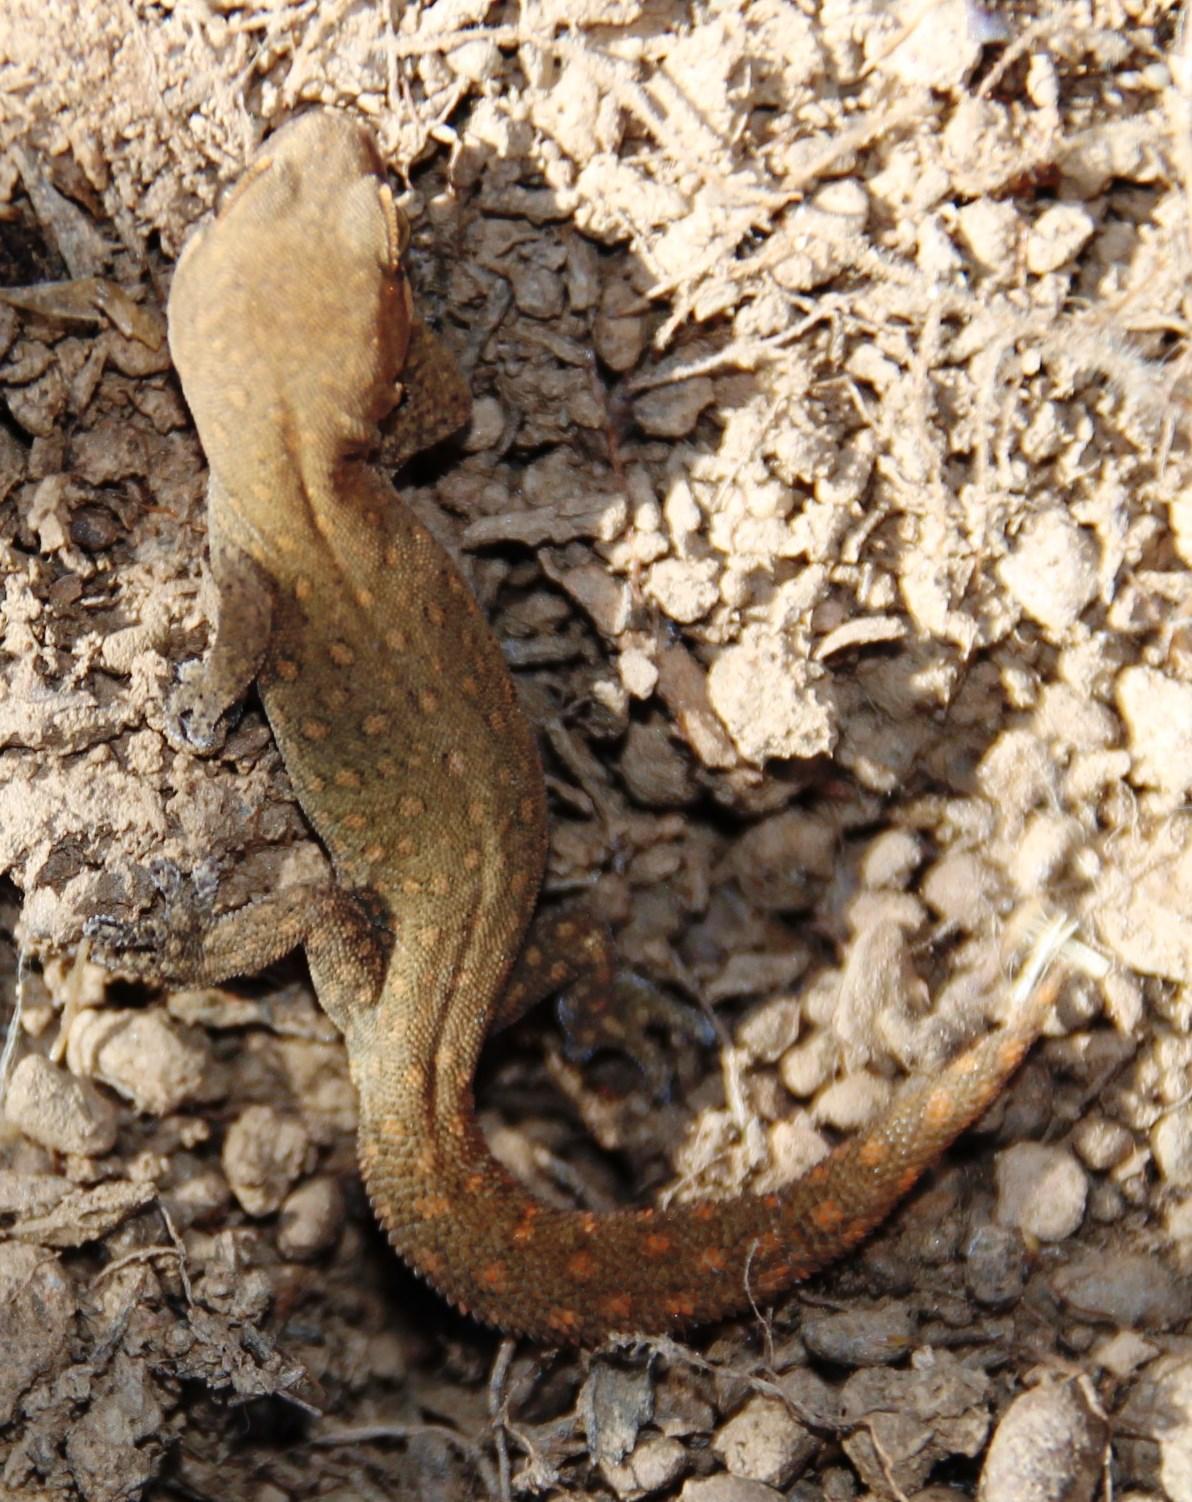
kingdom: Animalia
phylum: Chordata
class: Squamata
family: Gekkonidae
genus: Pachydactylus
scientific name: Pachydactylus geitje
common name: Ocellated thick-toed gecko
